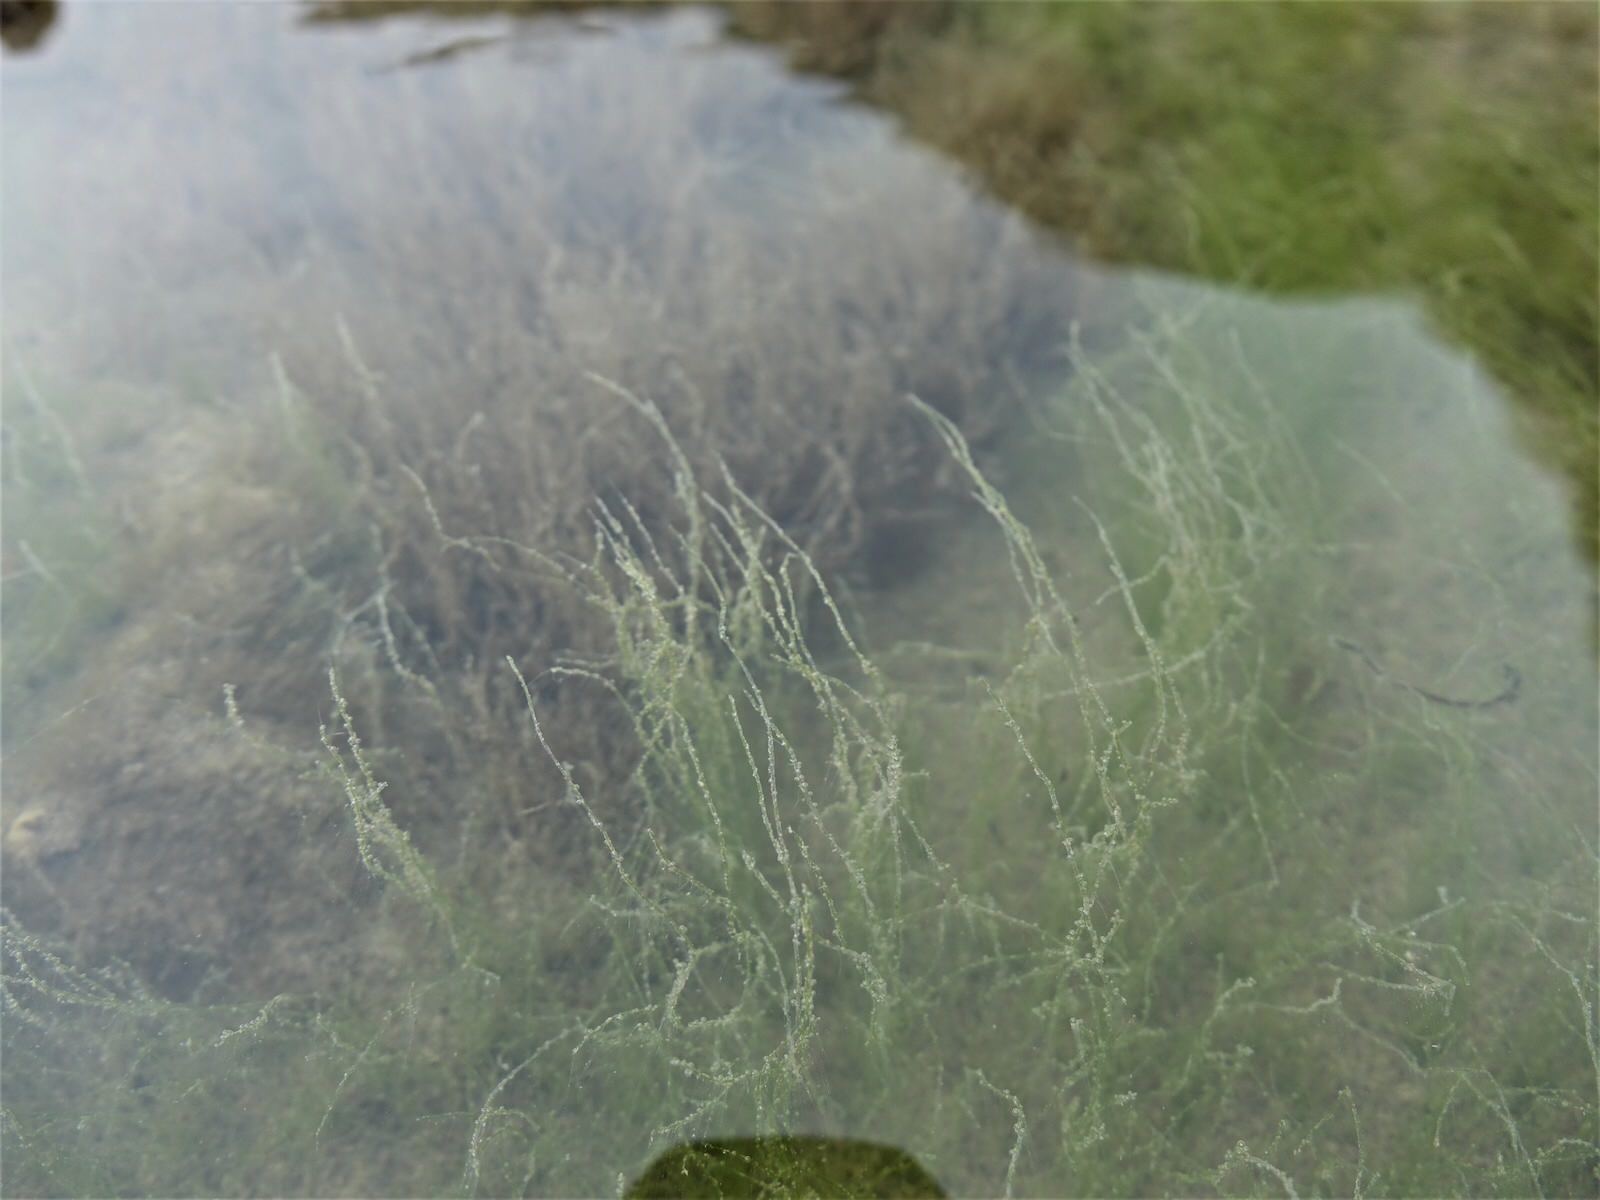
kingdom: Plantae
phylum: Chlorophyta
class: Ulvophyceae
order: Cladophorales
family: Cladophoraceae
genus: Chaetomorpha
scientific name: Chaetomorpha aerea
